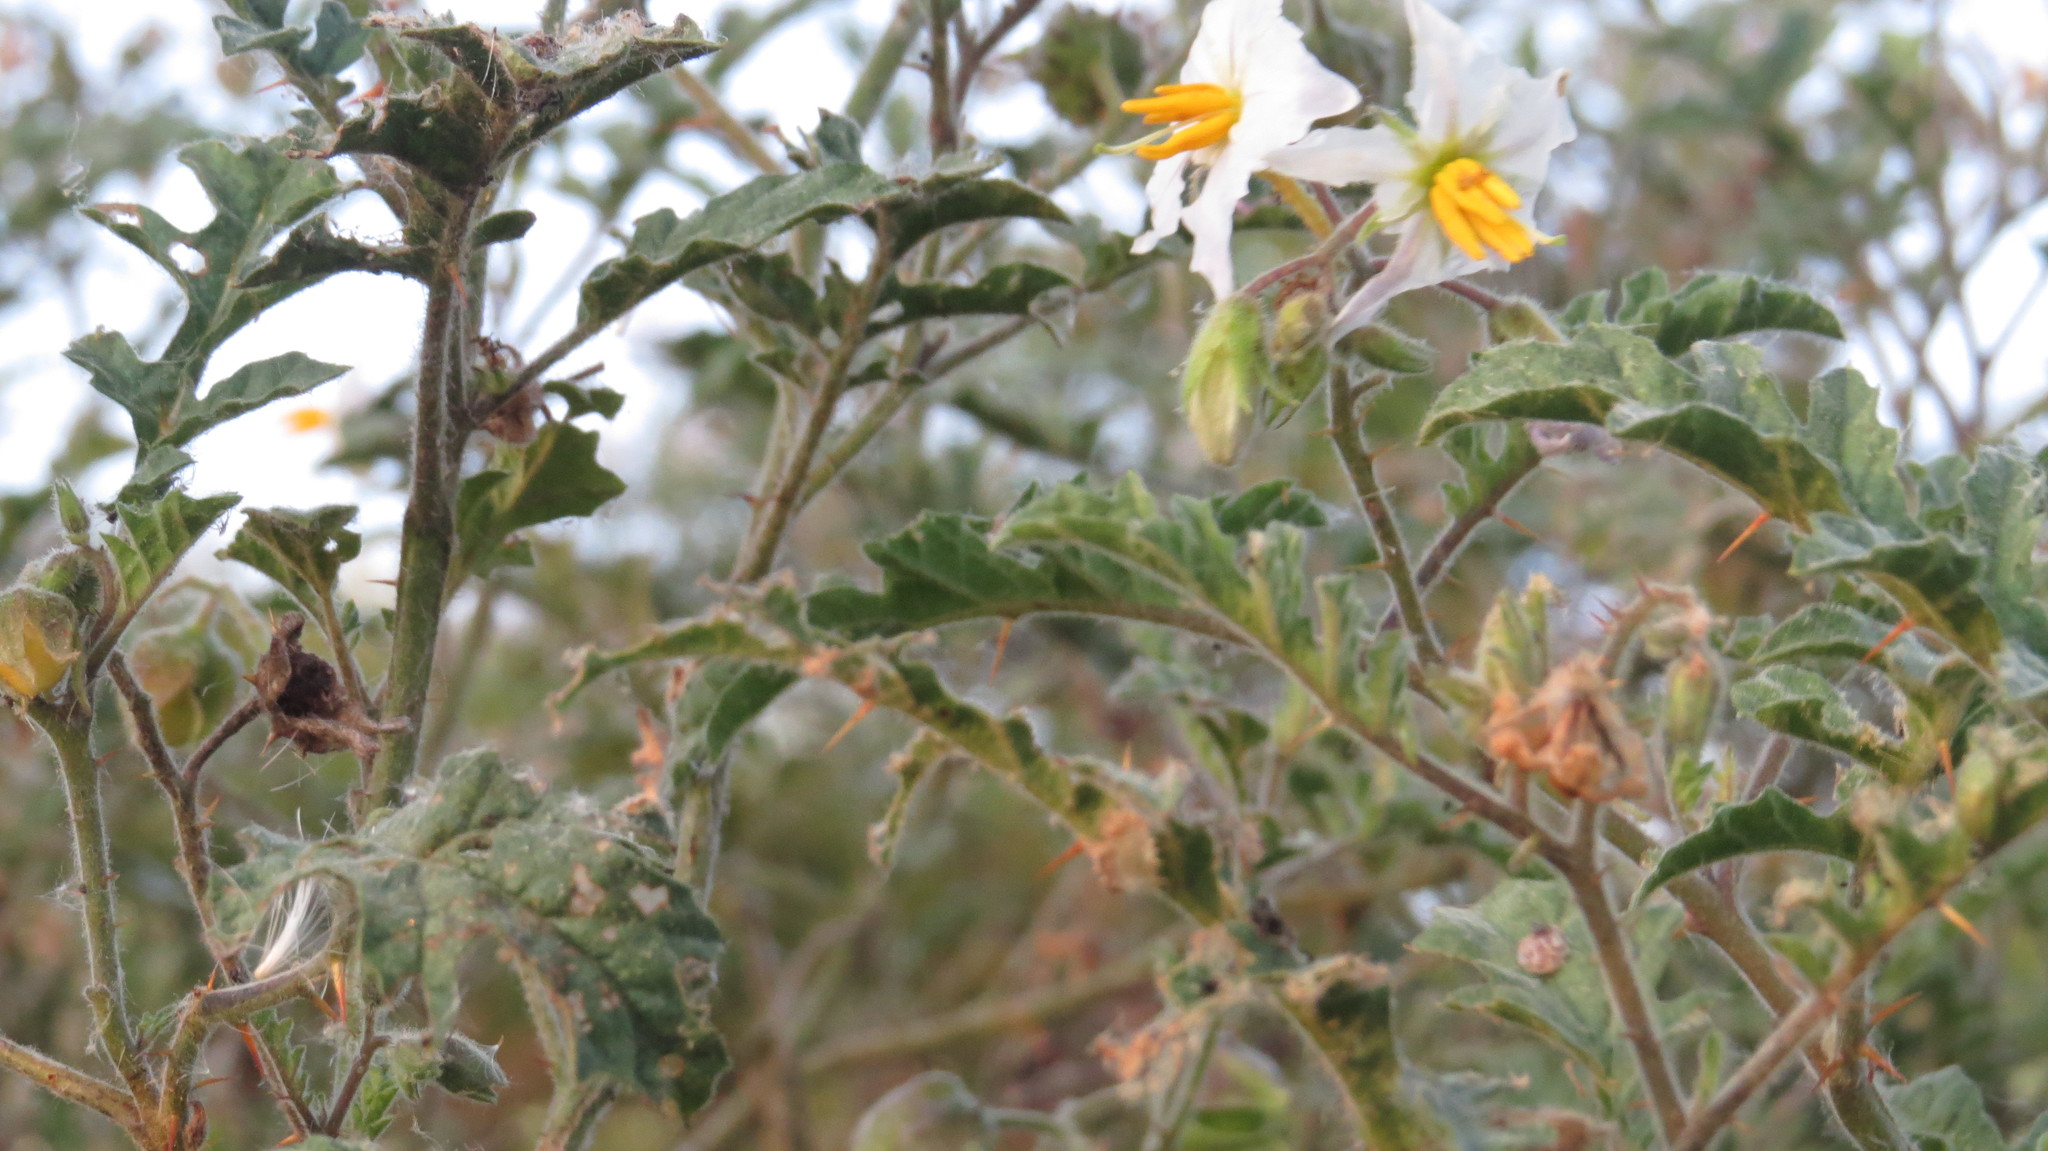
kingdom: Plantae
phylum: Tracheophyta
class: Magnoliopsida
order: Solanales
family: Solanaceae
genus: Solanum
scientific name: Solanum sisymbriifolium
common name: Red buffalo-bur
